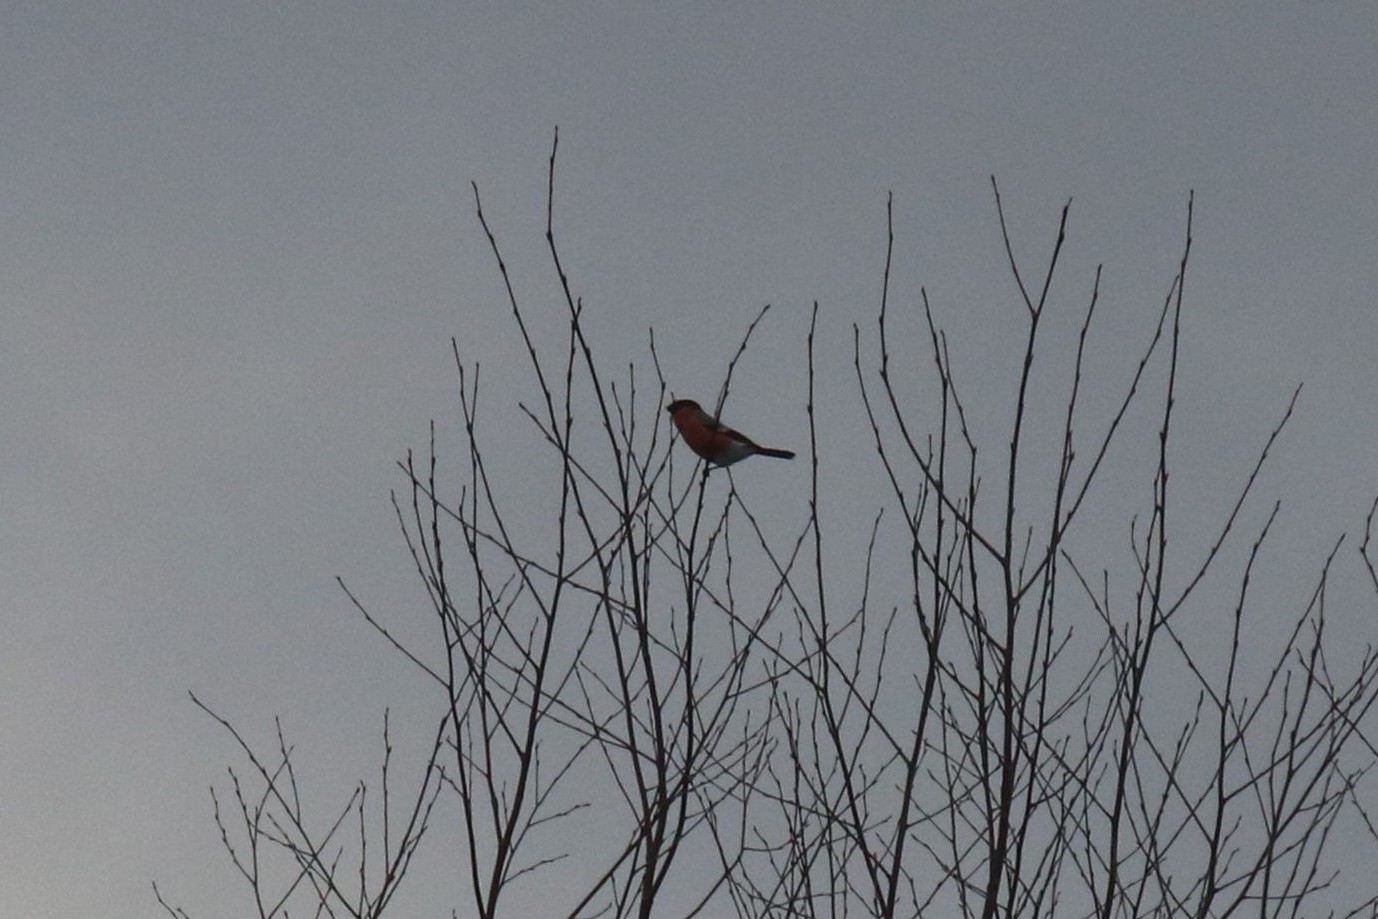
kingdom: Animalia
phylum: Chordata
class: Aves
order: Passeriformes
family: Fringillidae
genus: Pyrrhula
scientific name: Pyrrhula pyrrhula
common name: Eurasian bullfinch
